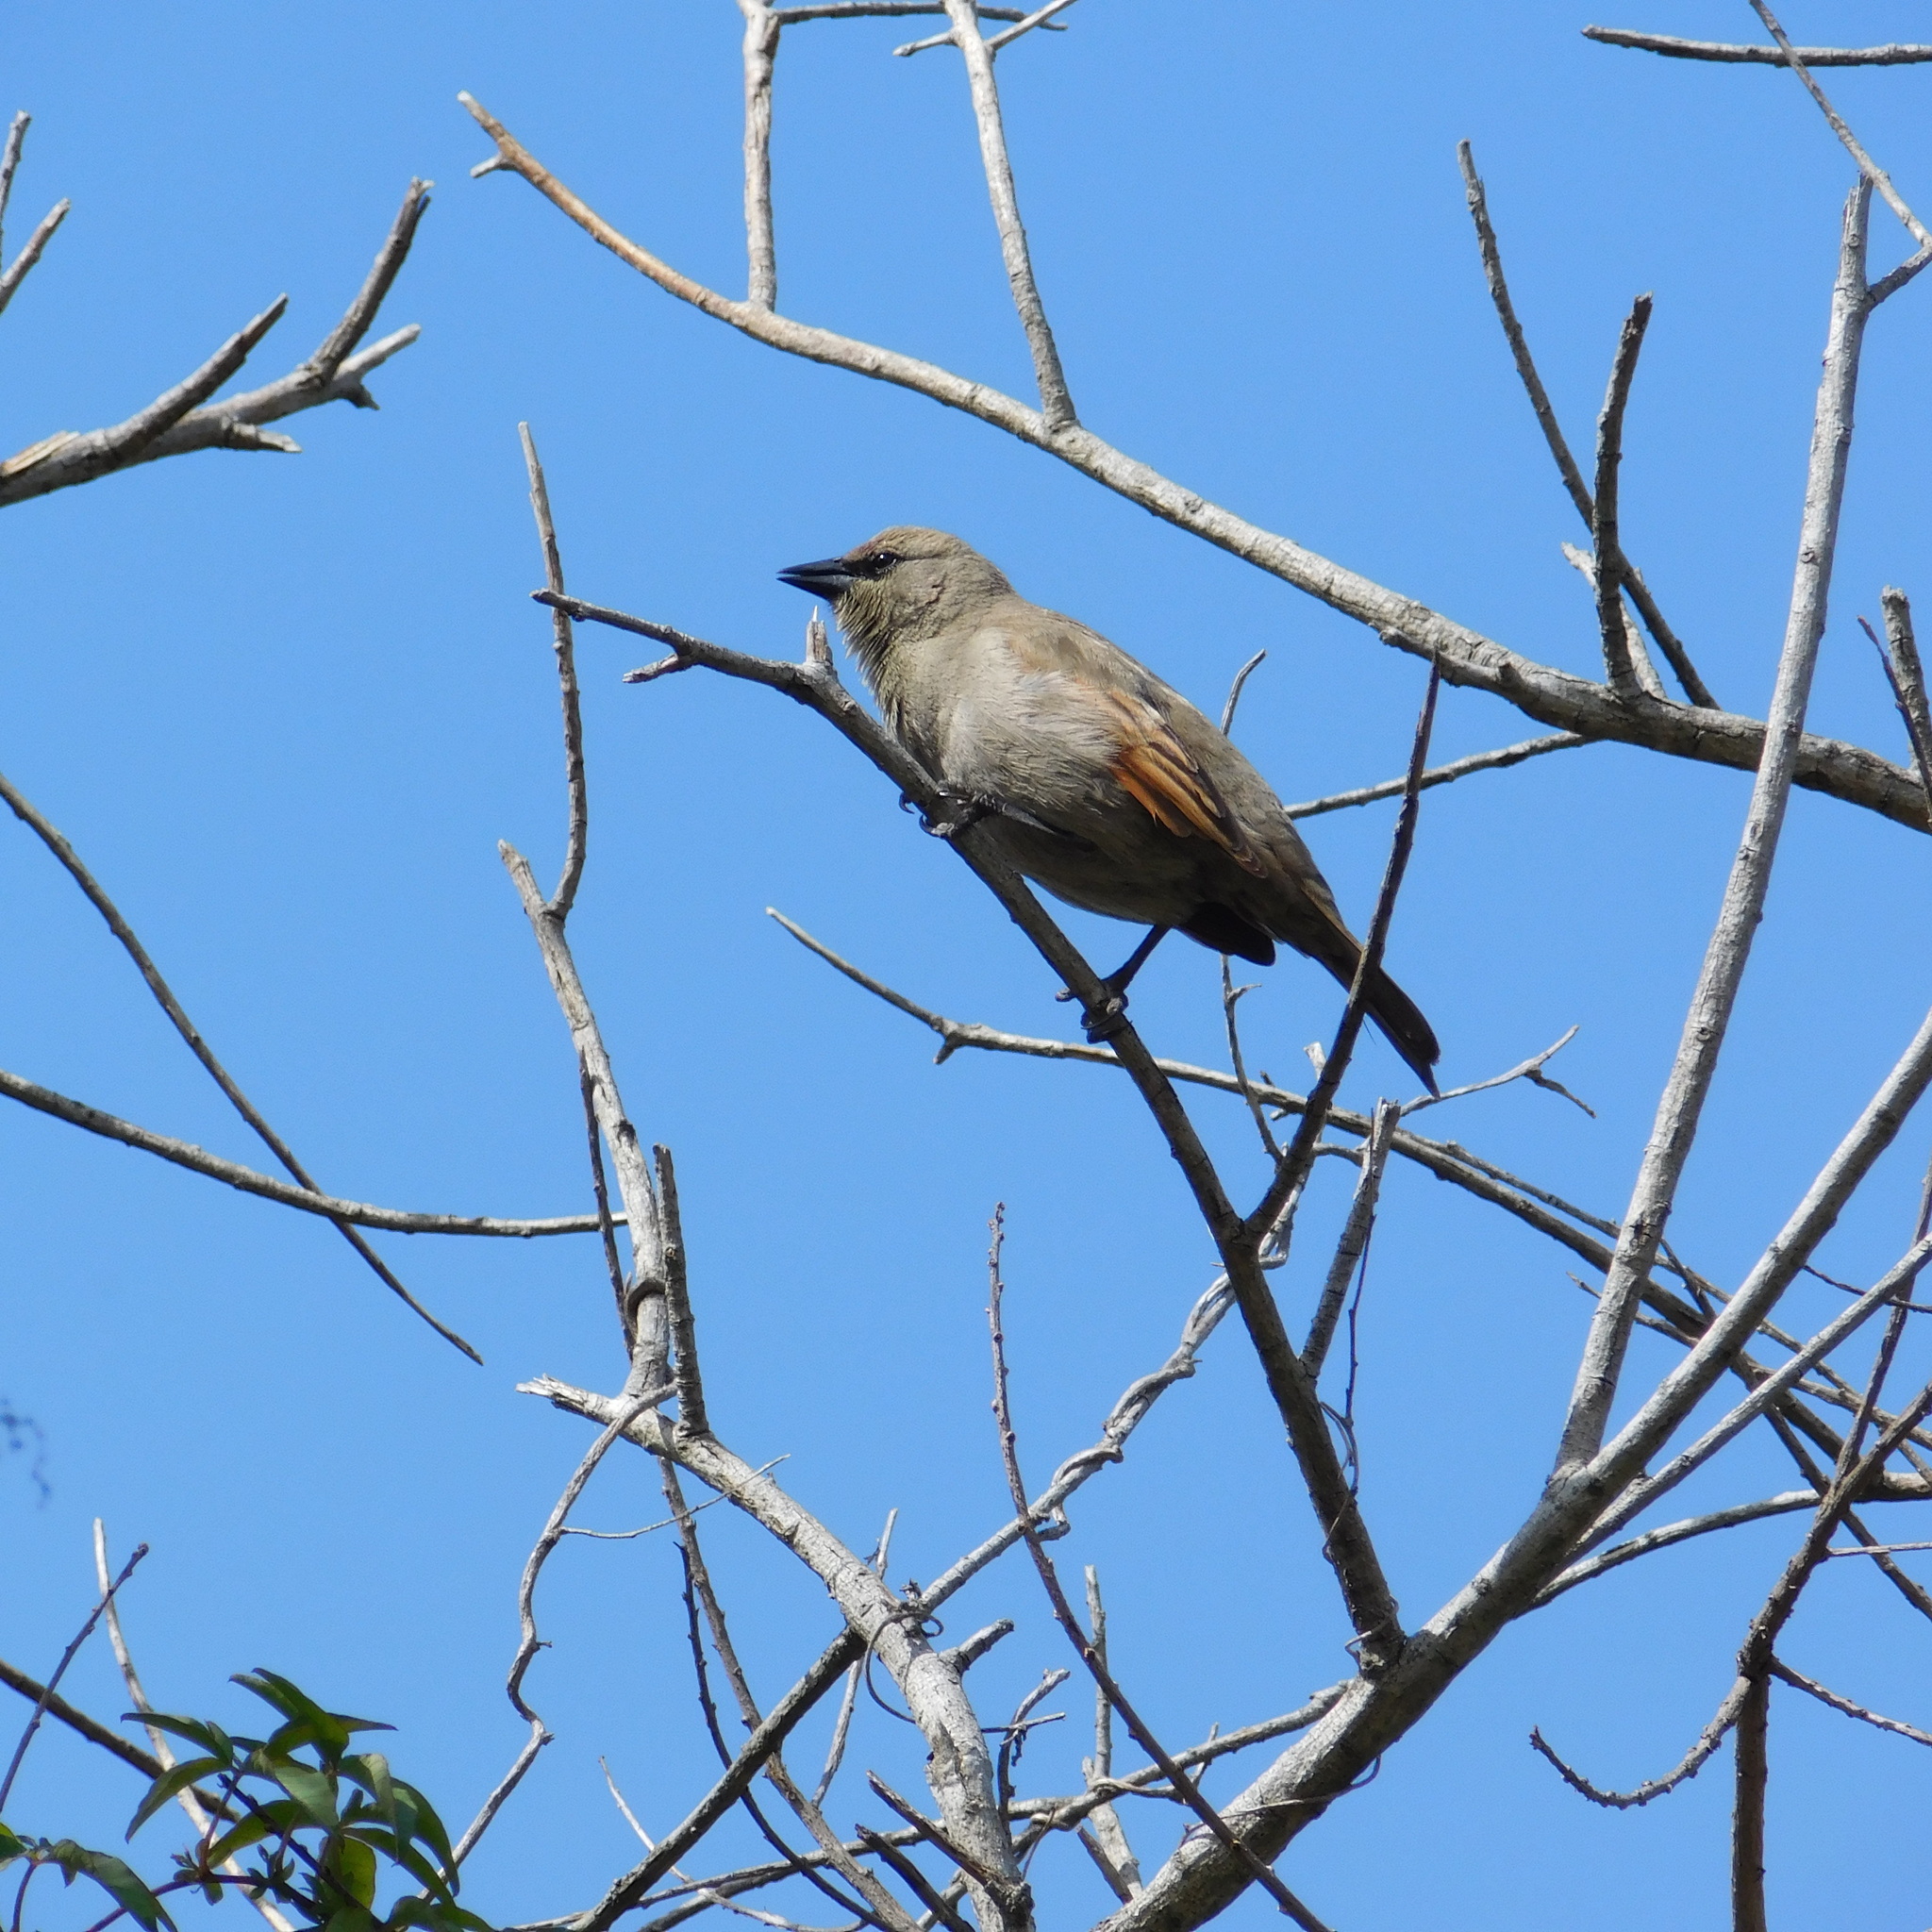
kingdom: Animalia
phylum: Chordata
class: Aves
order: Passeriformes
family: Icteridae
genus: Agelaioides
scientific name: Agelaioides badius
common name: Baywing
